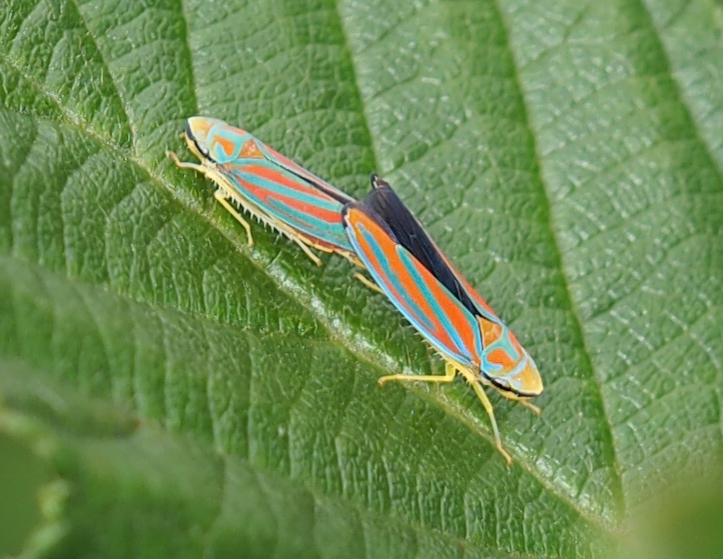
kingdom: Animalia
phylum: Arthropoda
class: Insecta
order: Hemiptera
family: Cicadellidae
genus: Graphocephala
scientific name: Graphocephala coccinea
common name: Candy-striped leafhopper
